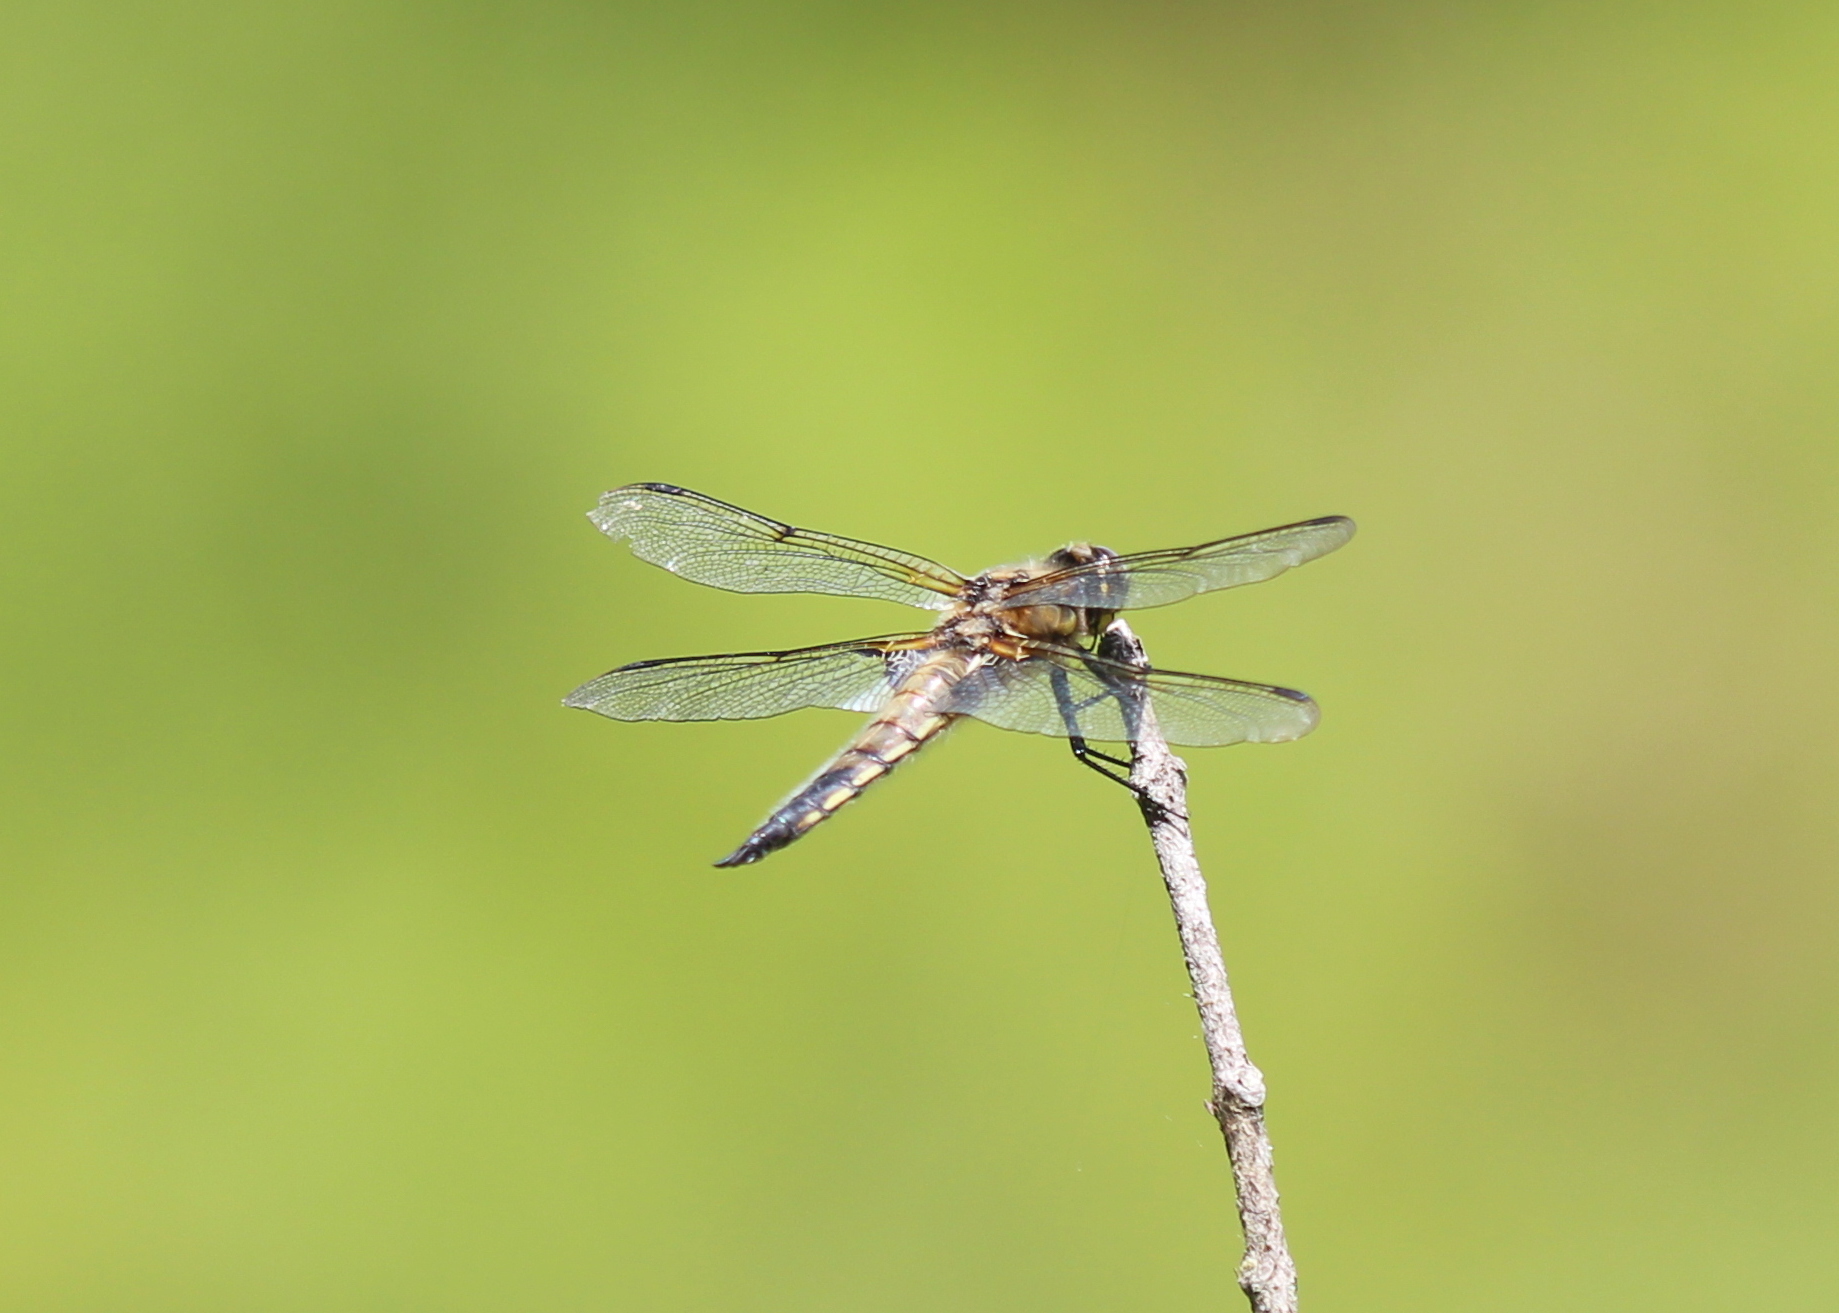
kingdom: Animalia
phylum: Arthropoda
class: Insecta
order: Odonata
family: Libellulidae
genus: Libellula
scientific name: Libellula quadrimaculata
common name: Four-spotted chaser
